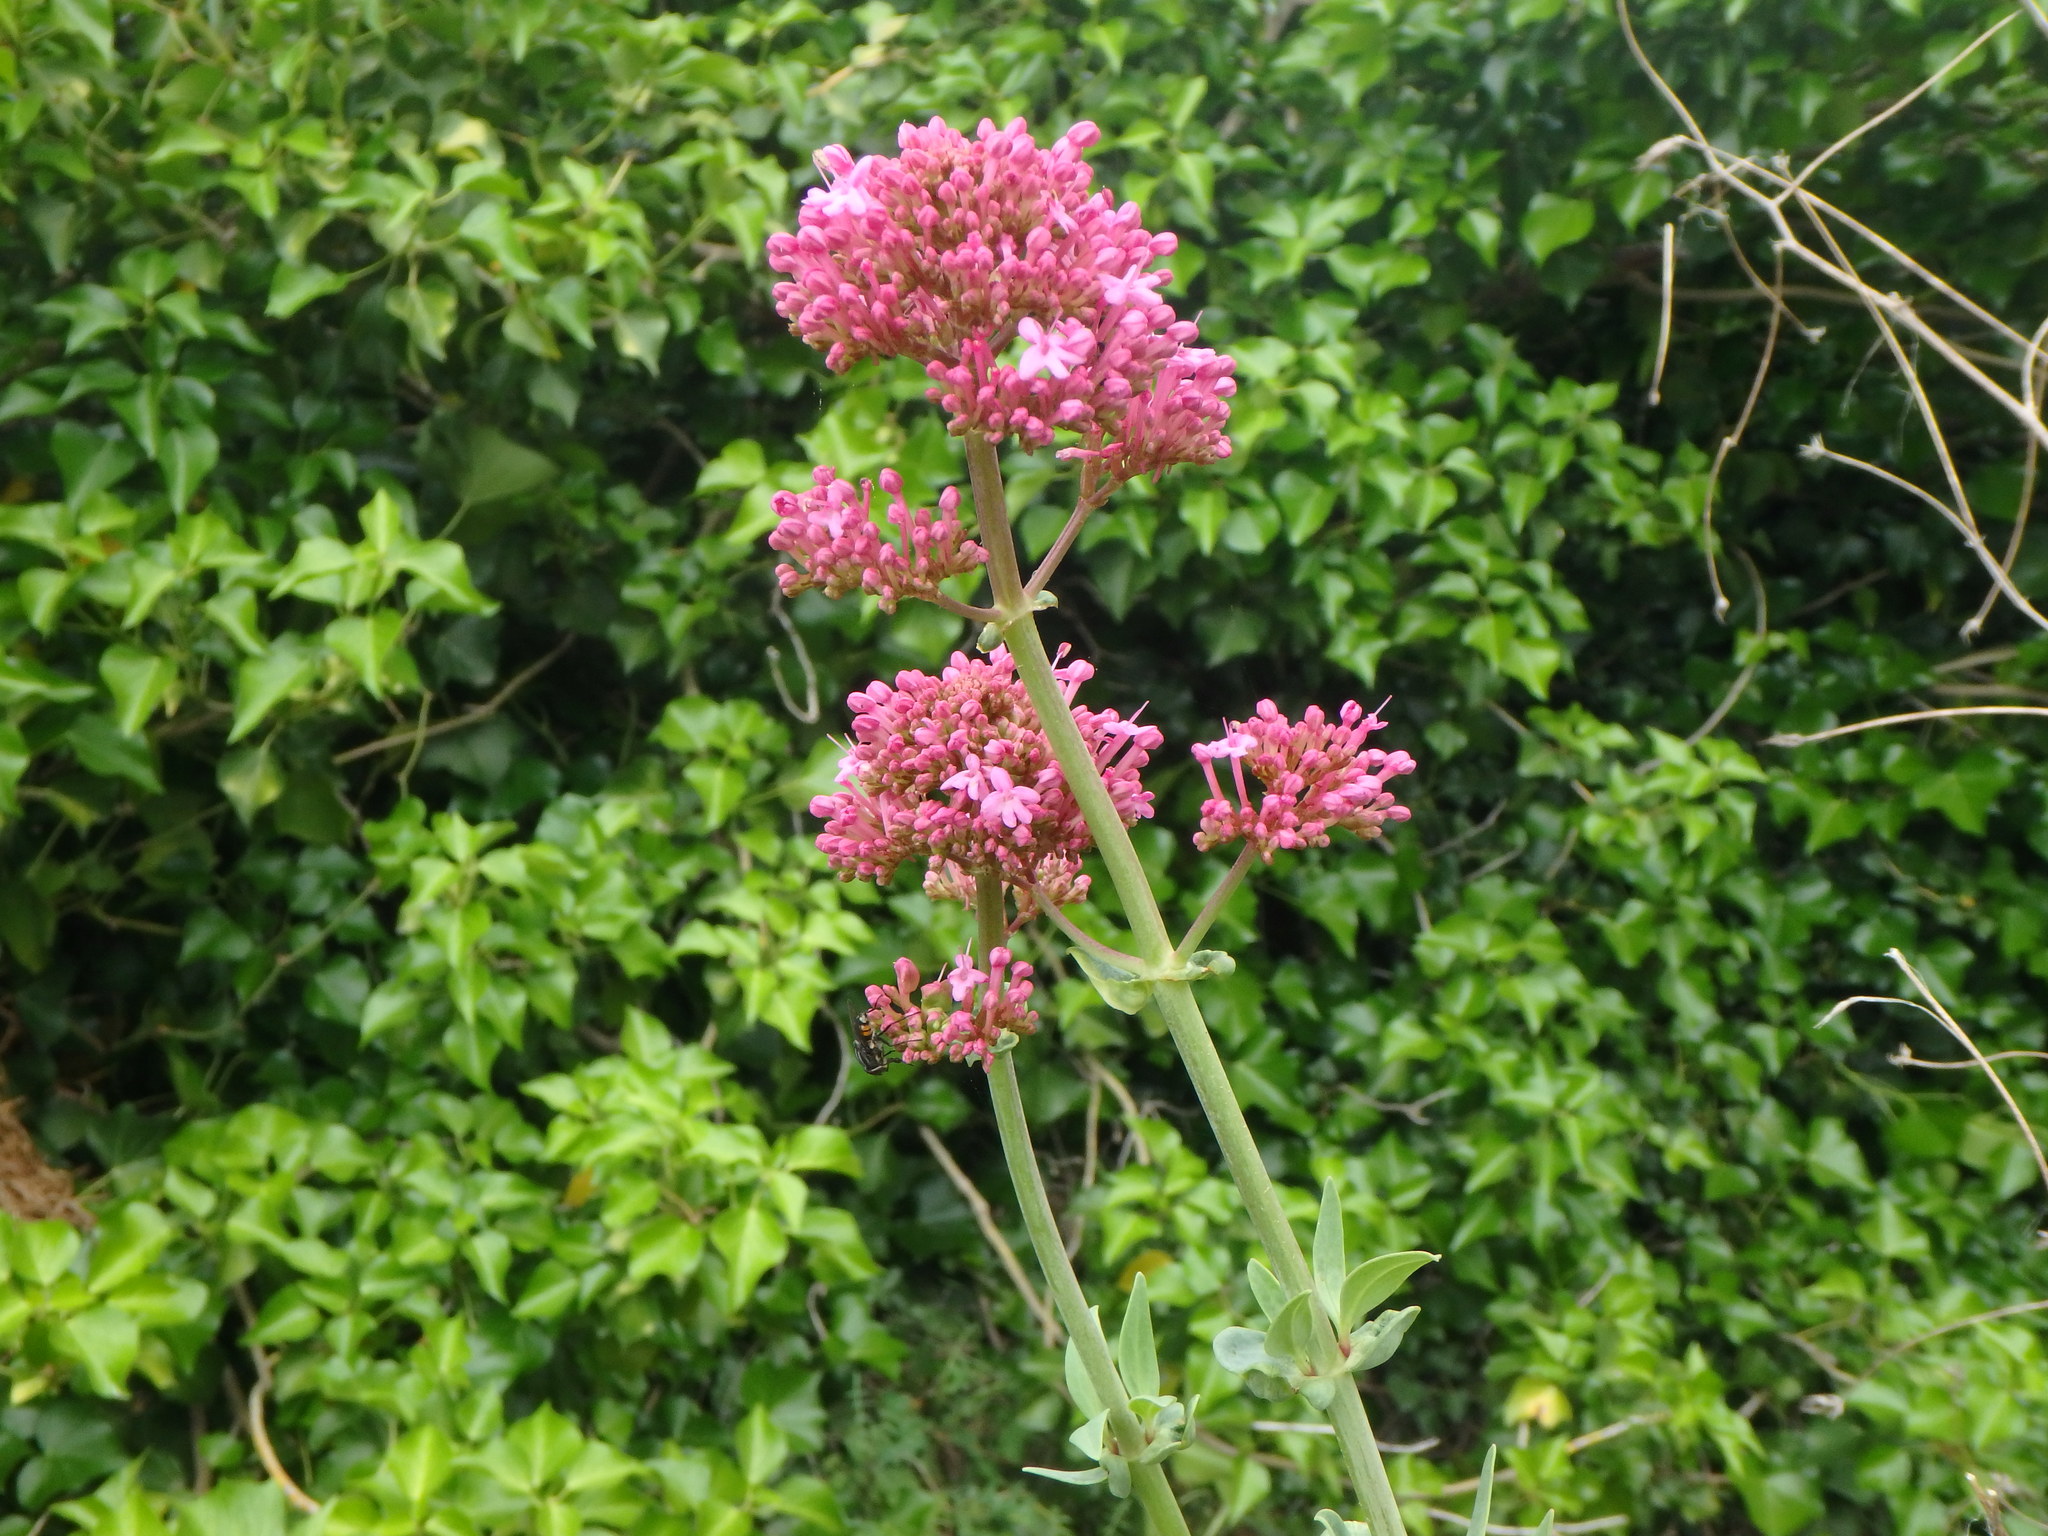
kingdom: Plantae
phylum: Tracheophyta
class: Magnoliopsida
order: Dipsacales
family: Caprifoliaceae
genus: Centranthus
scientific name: Centranthus ruber
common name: Red valerian
